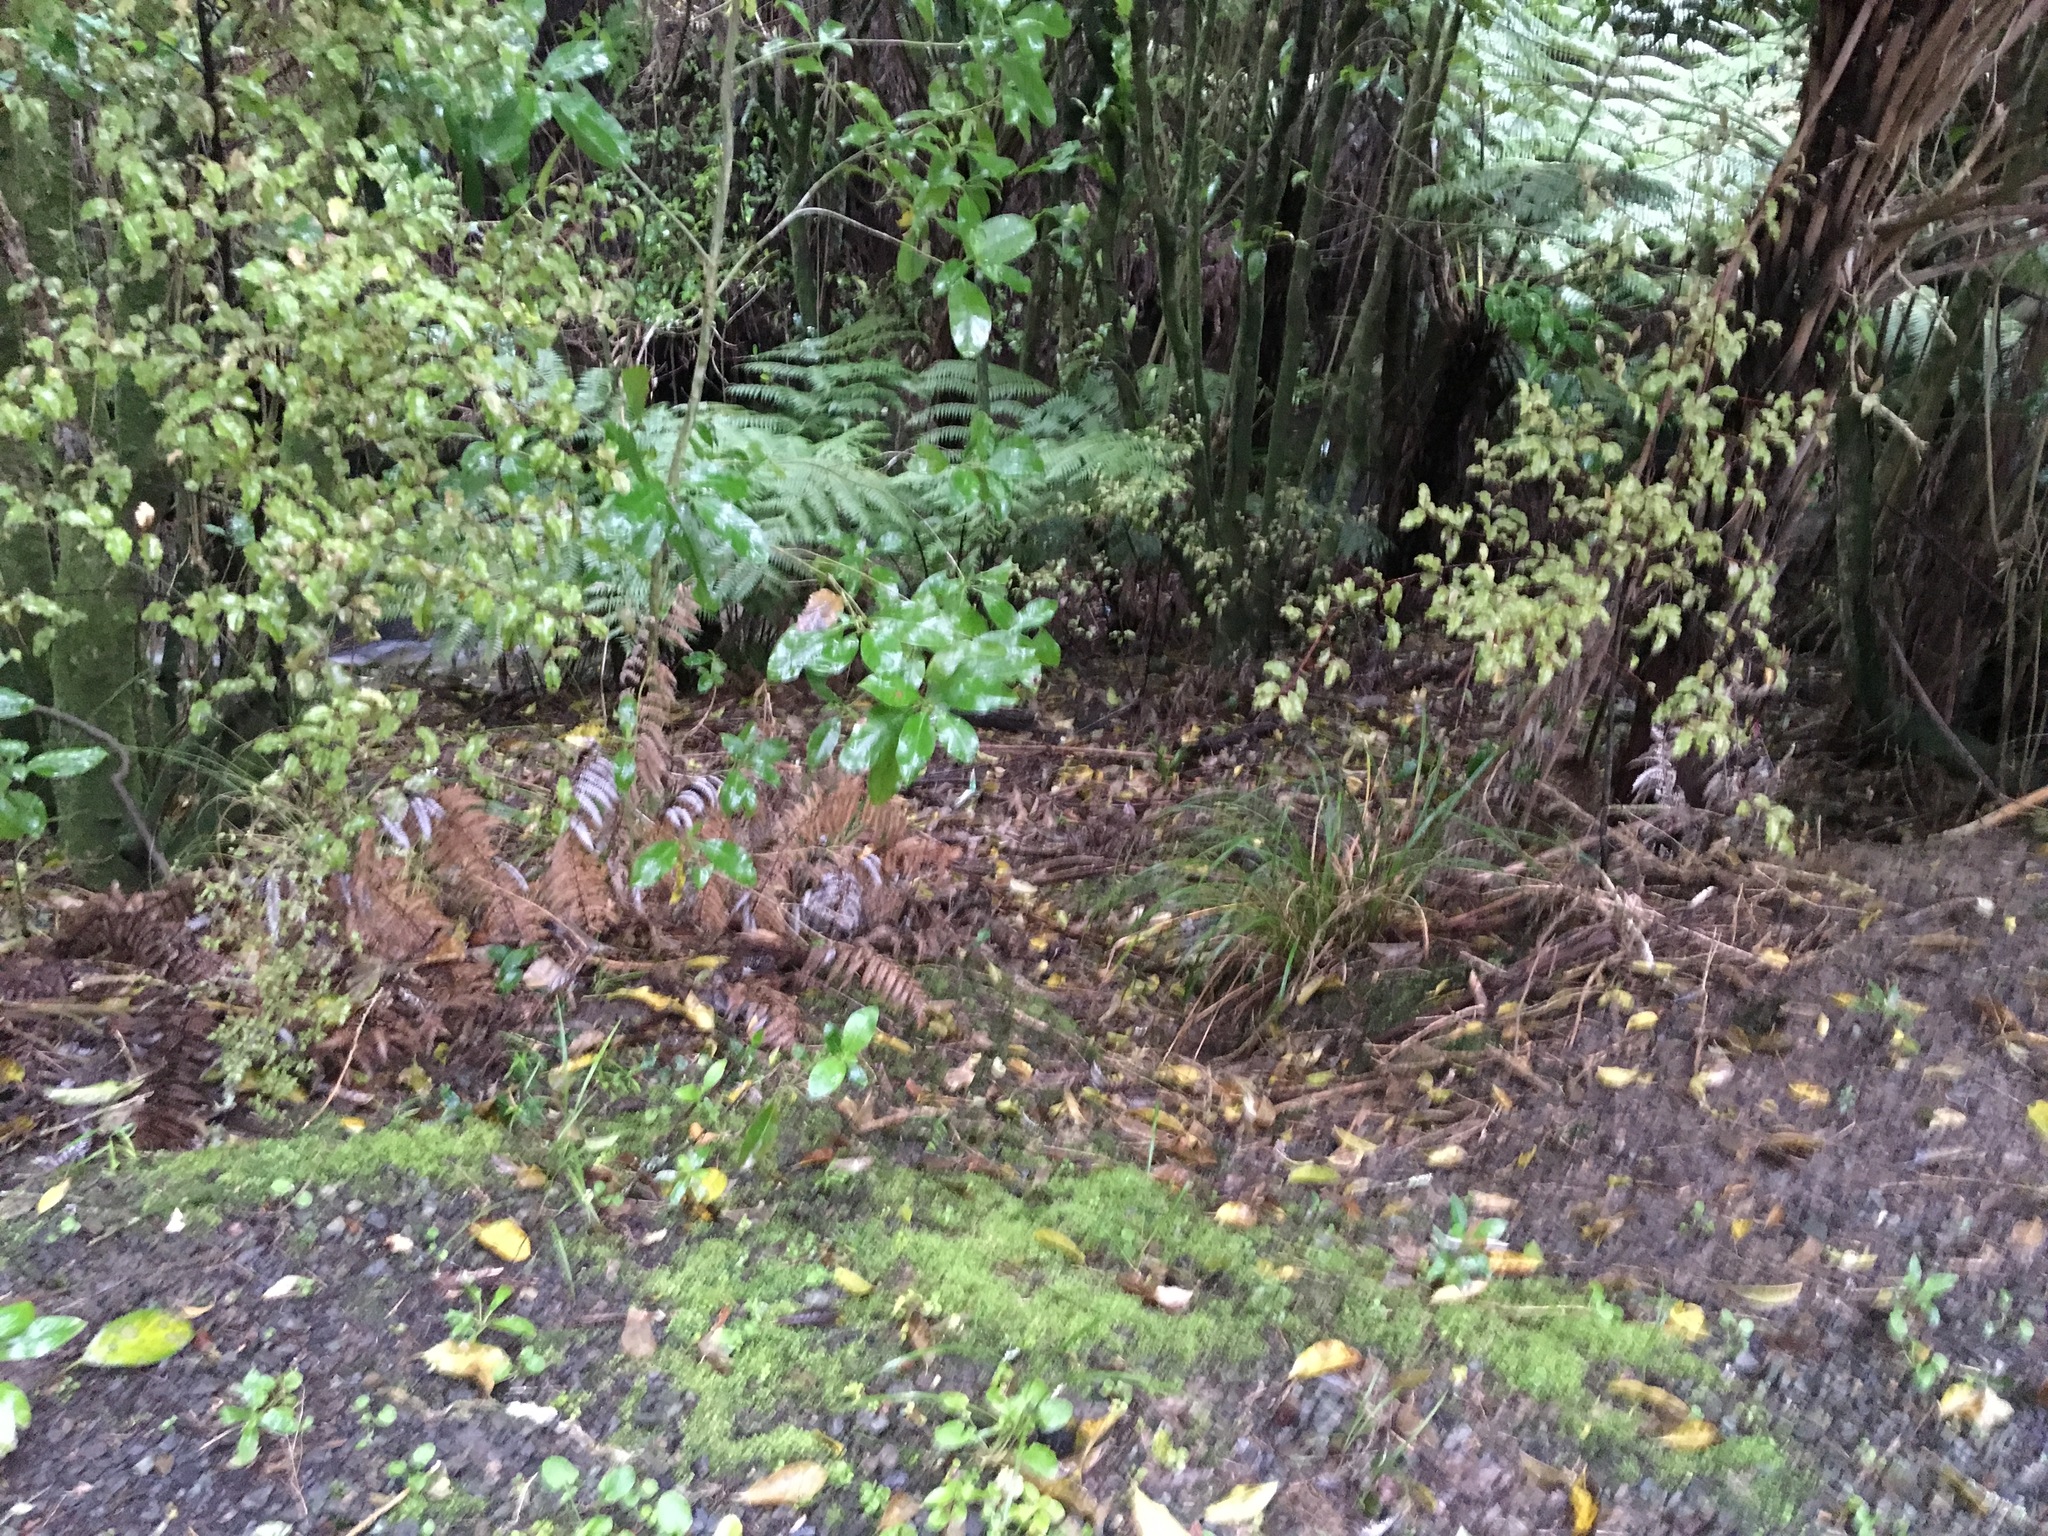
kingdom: Plantae
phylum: Tracheophyta
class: Magnoliopsida
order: Gentianales
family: Rubiaceae
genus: Coprosma
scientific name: Coprosma robusta
